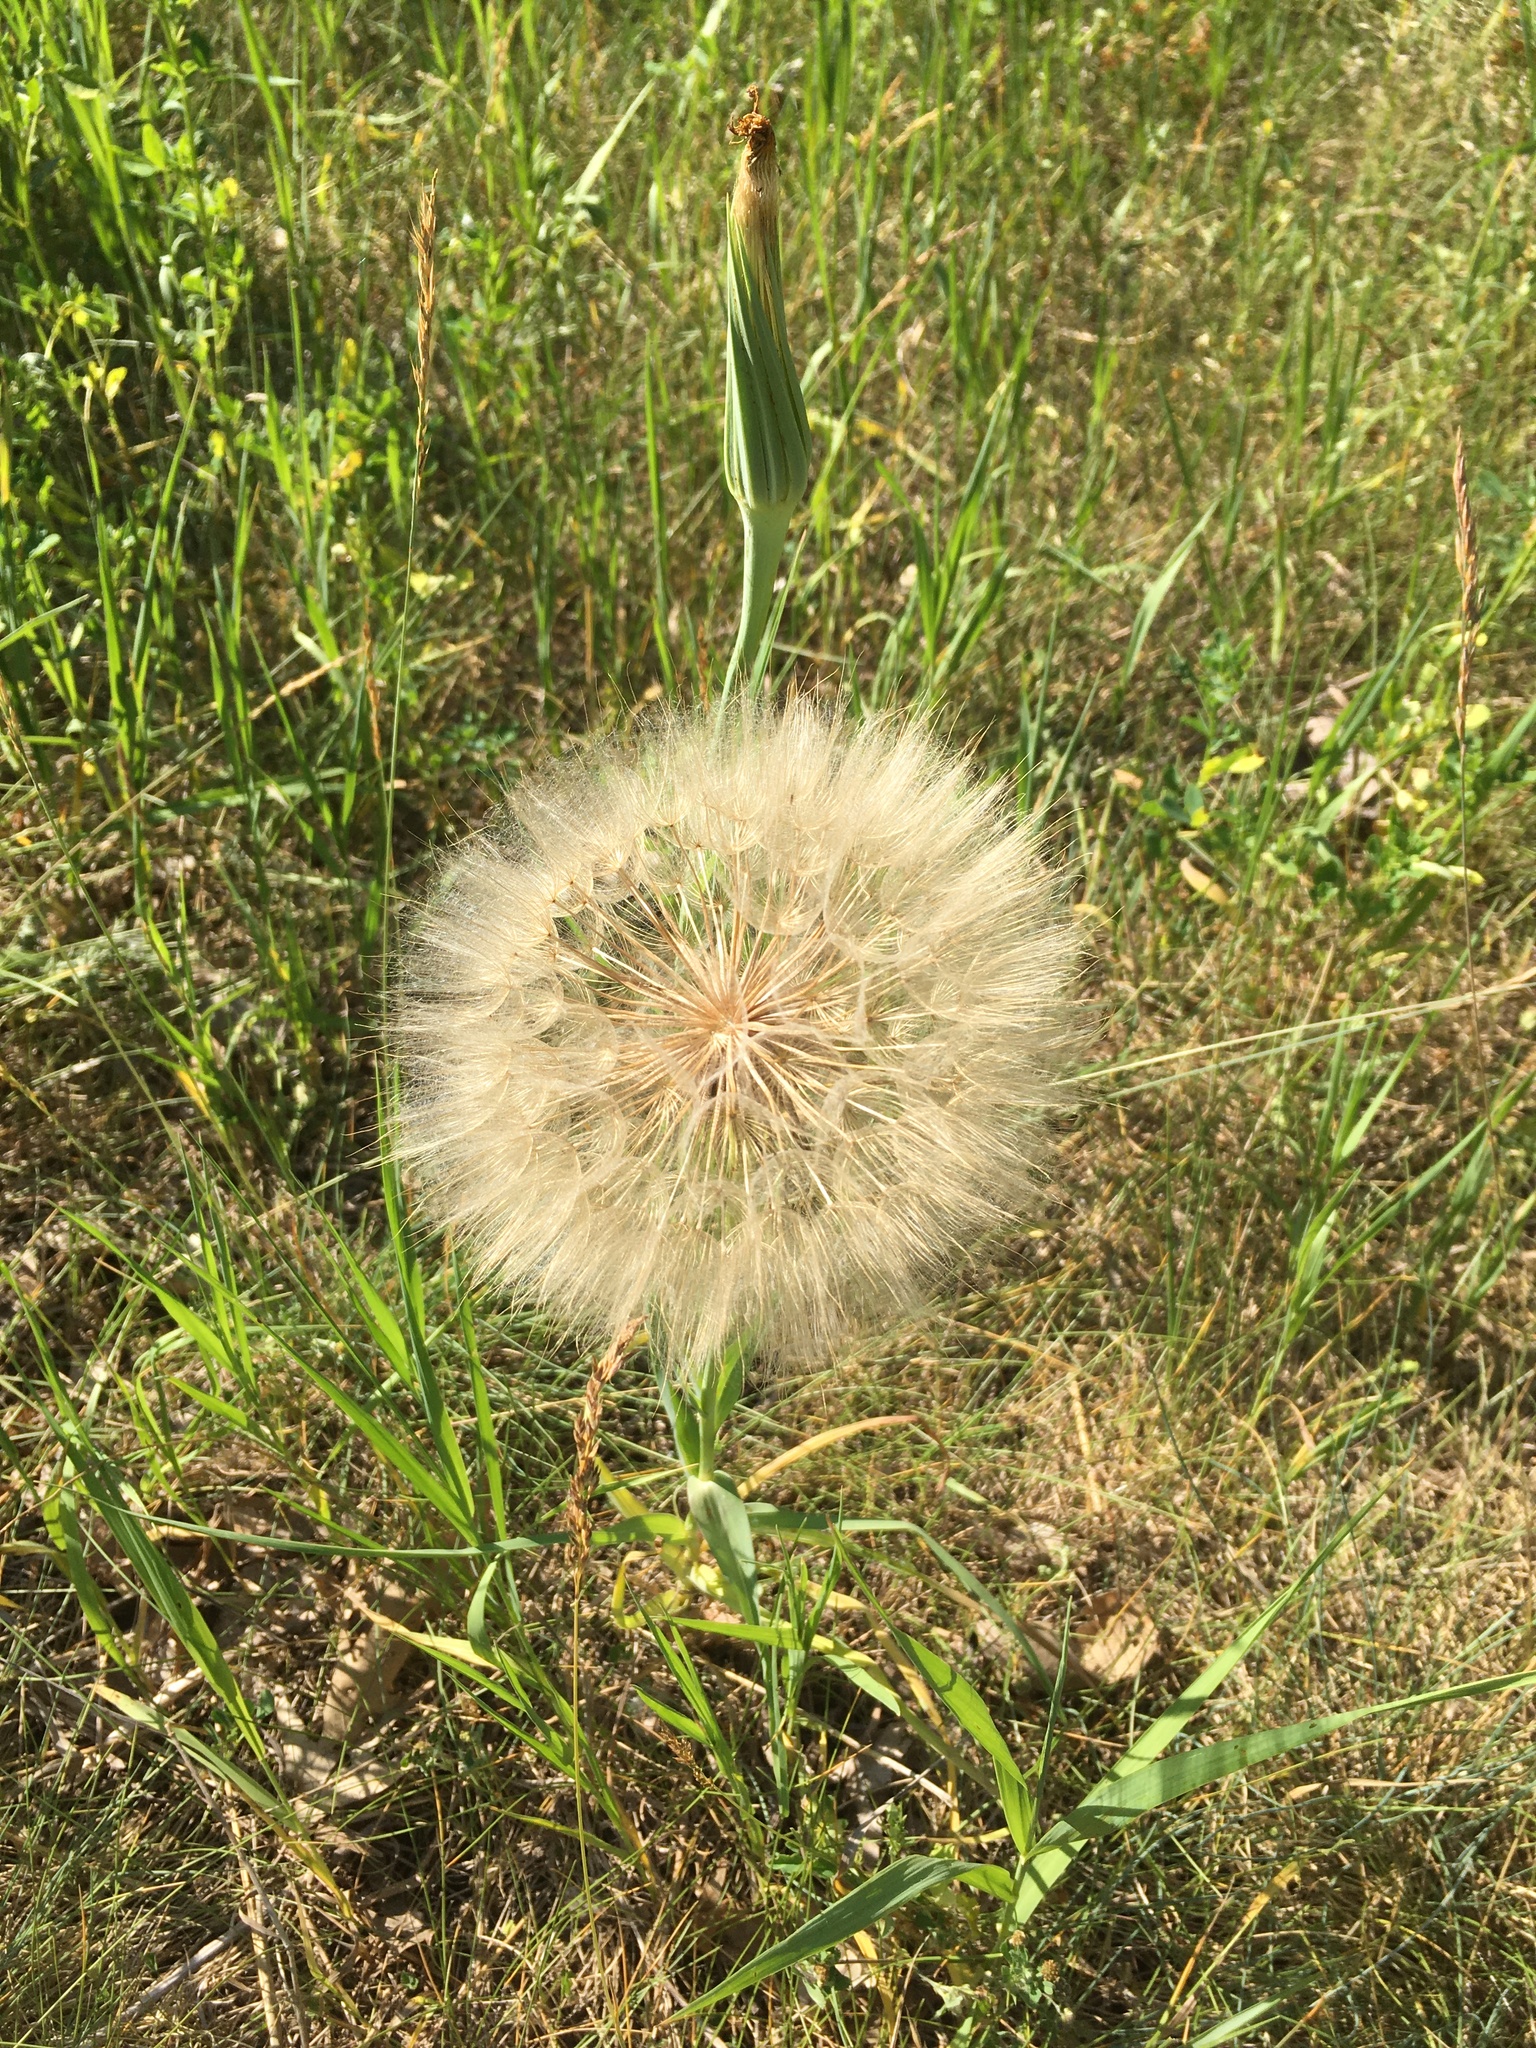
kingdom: Plantae
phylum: Tracheophyta
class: Magnoliopsida
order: Asterales
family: Asteraceae
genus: Tragopogon
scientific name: Tragopogon dubius
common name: Yellow salsify
